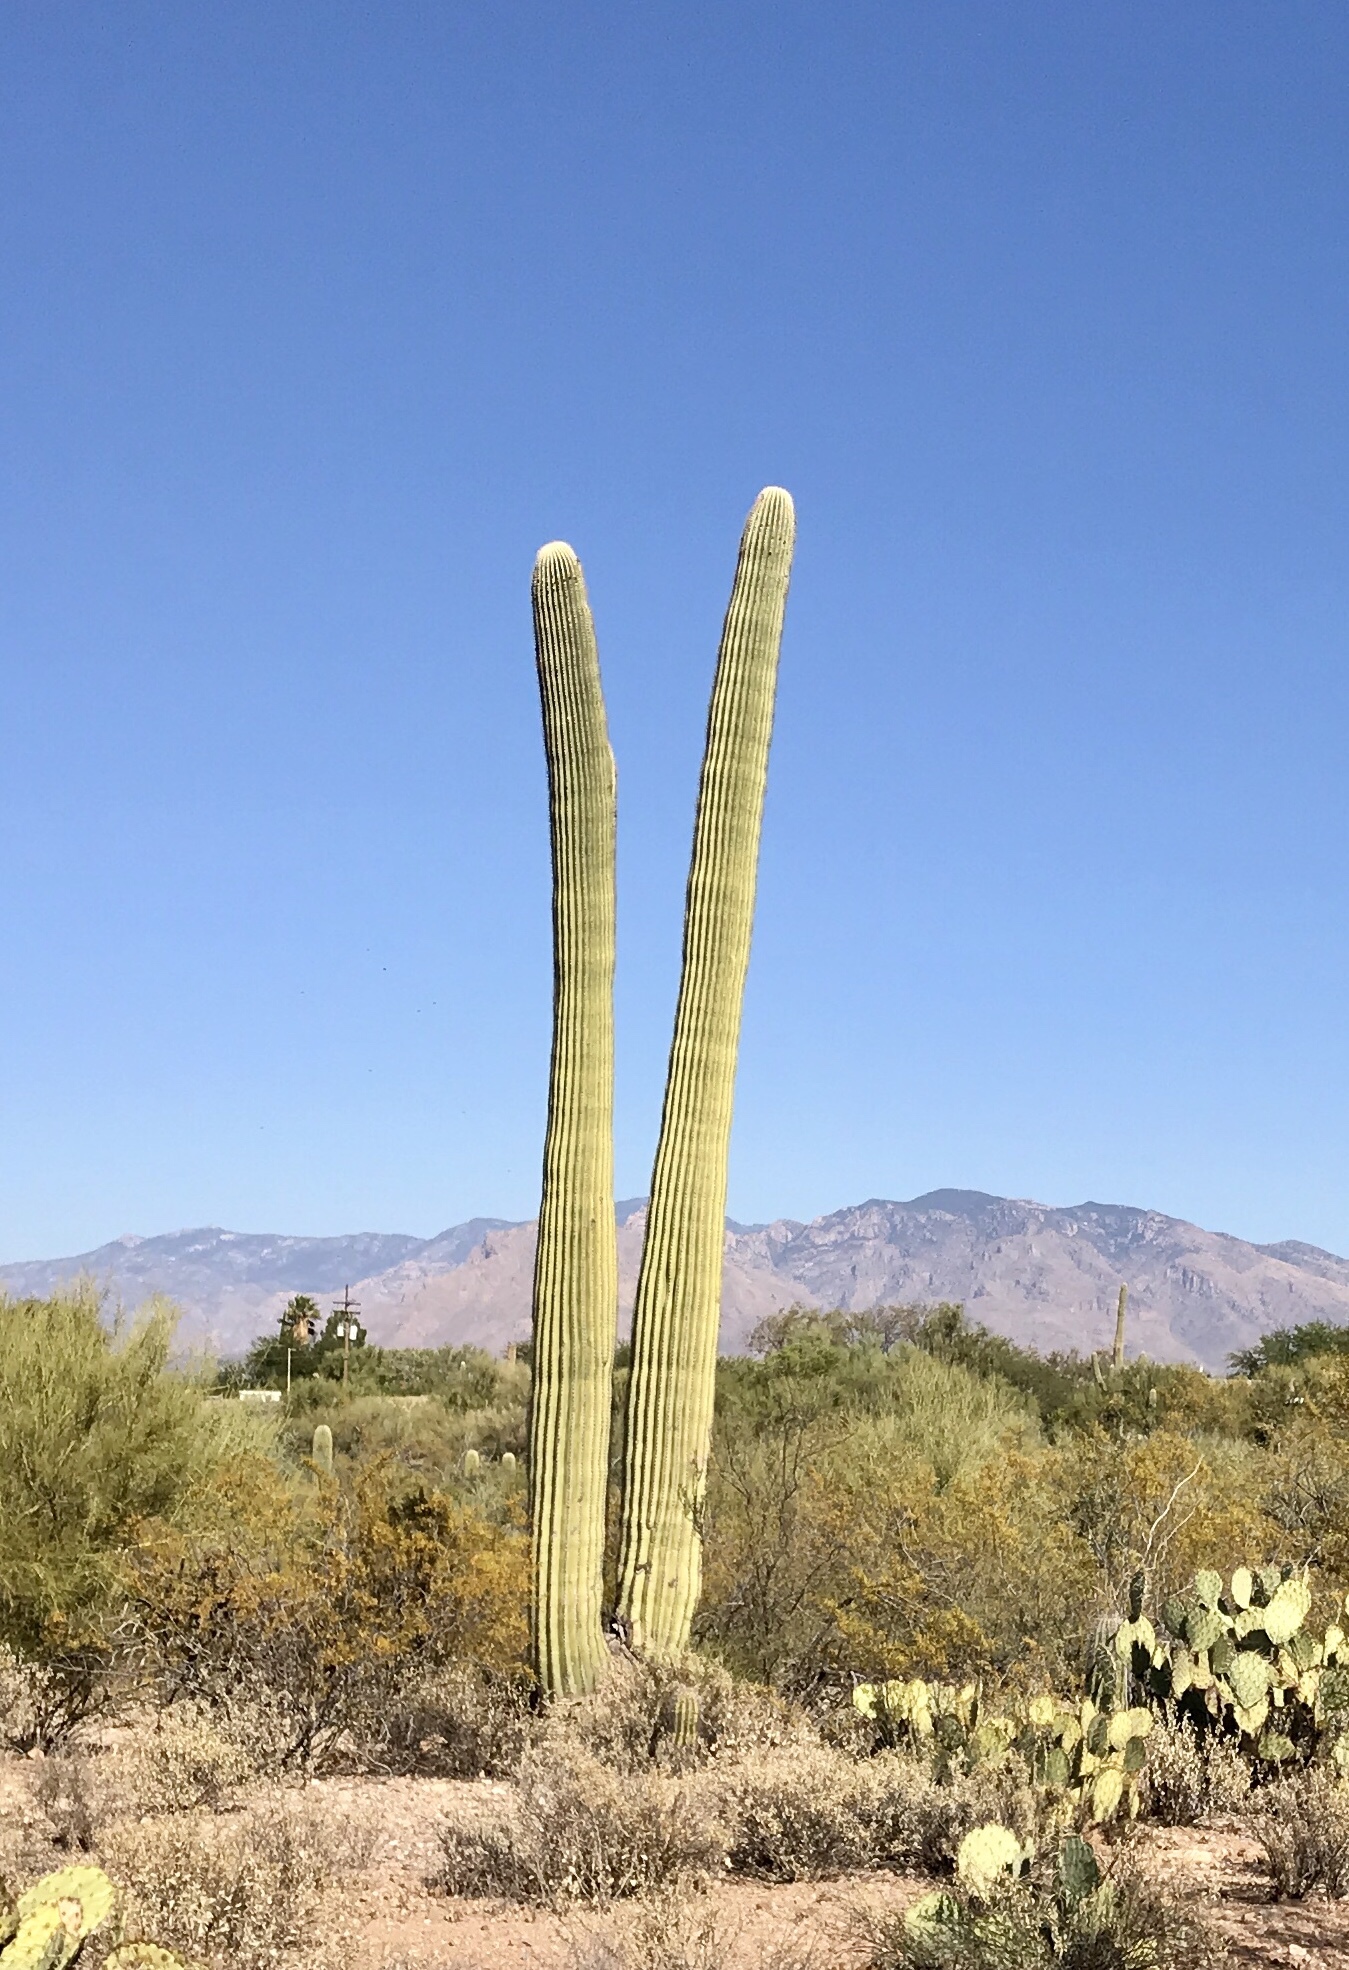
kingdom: Plantae
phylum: Tracheophyta
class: Magnoliopsida
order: Caryophyllales
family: Cactaceae
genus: Carnegiea
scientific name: Carnegiea gigantea
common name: Saguaro
